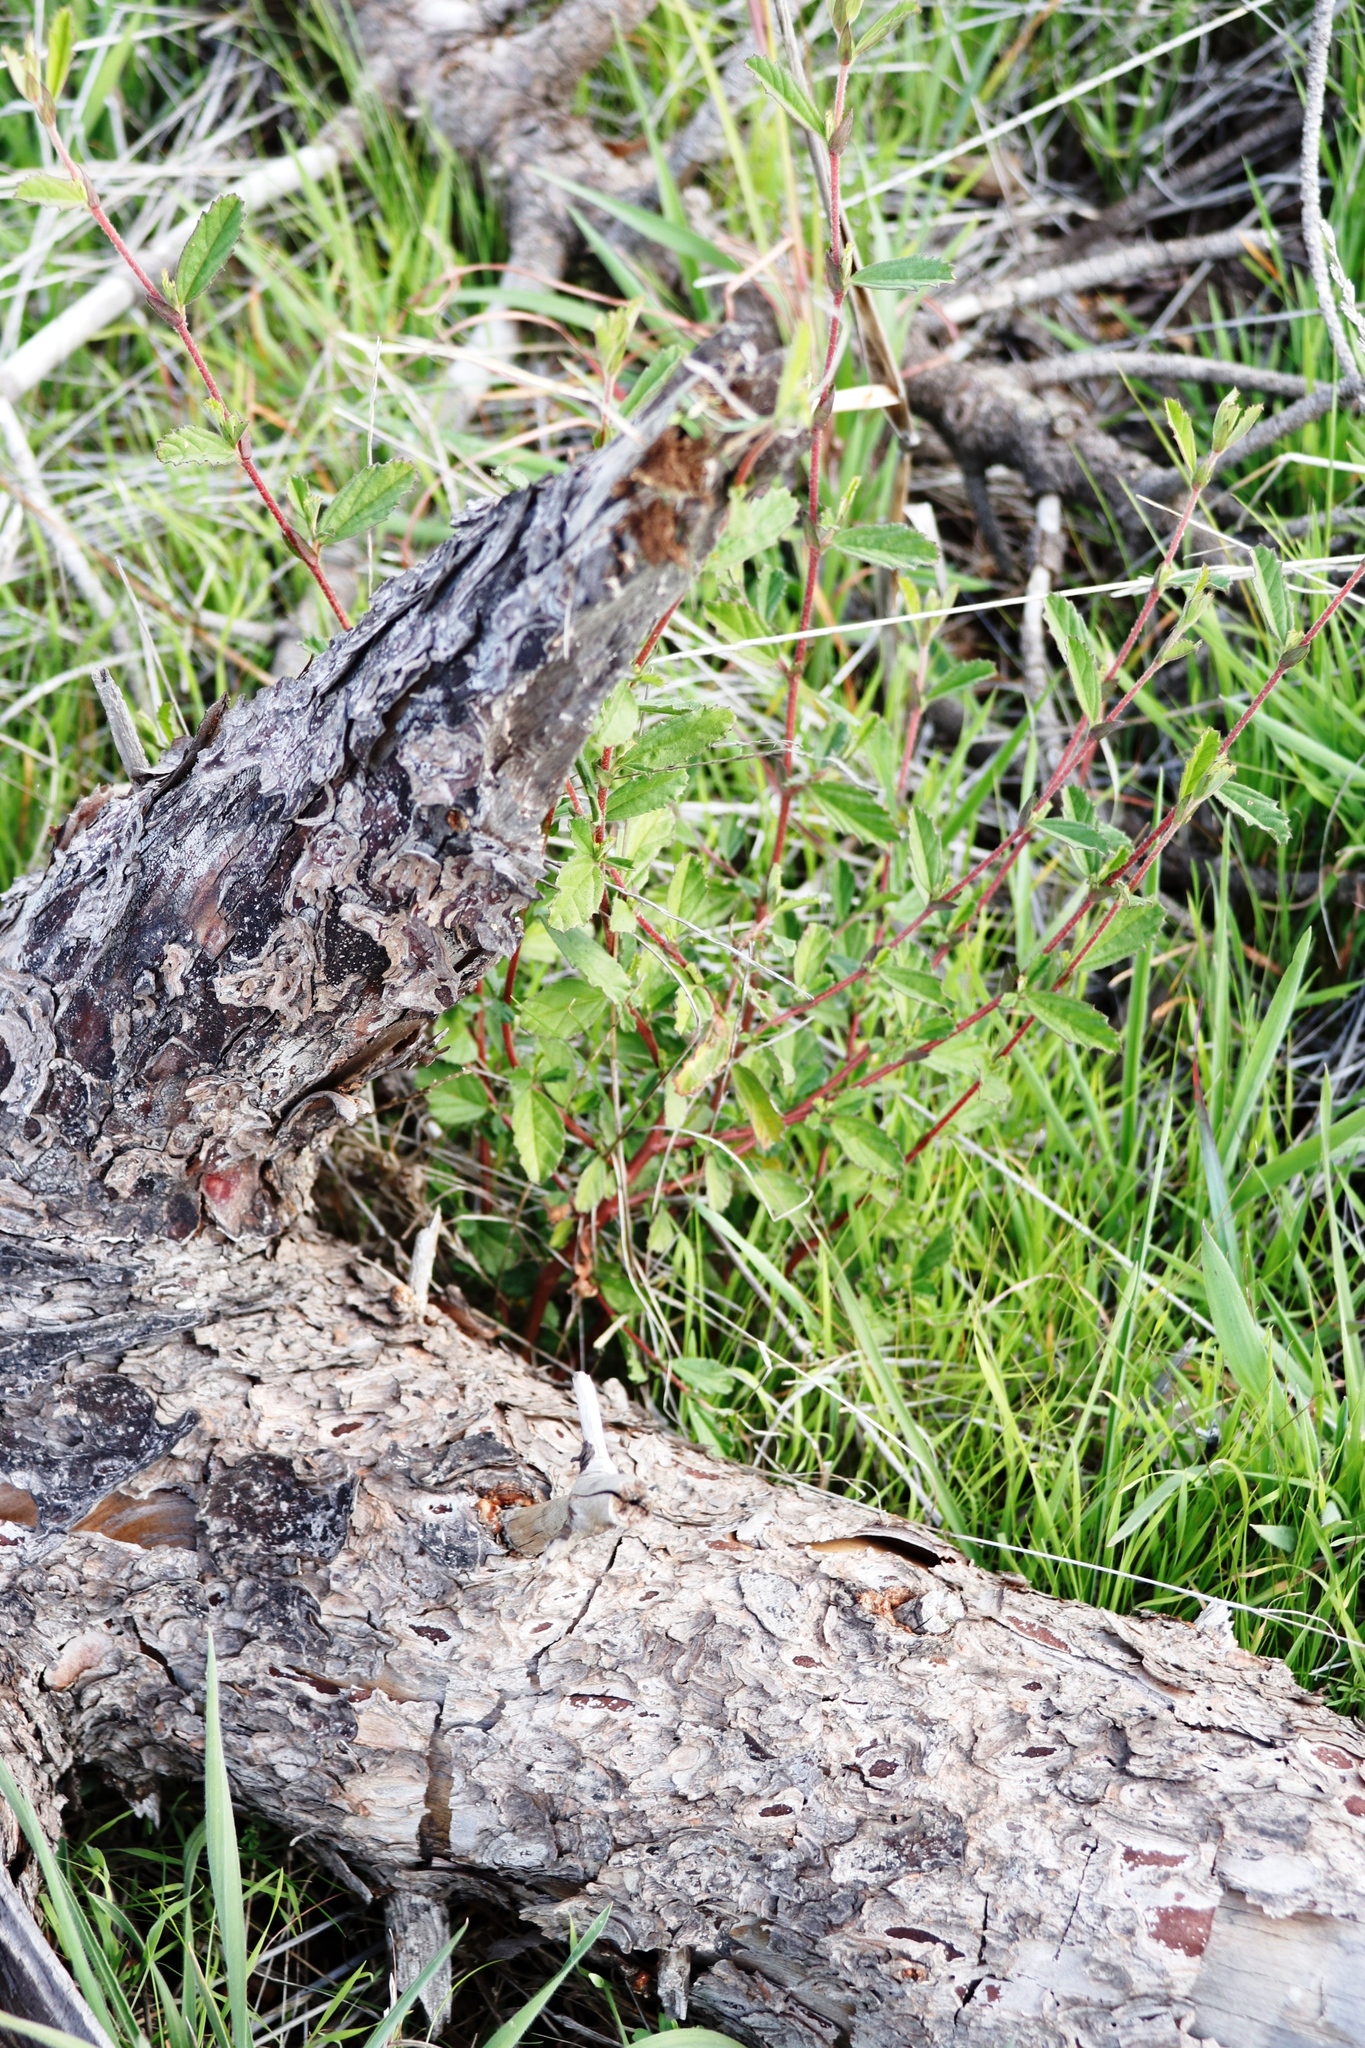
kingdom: Plantae
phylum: Tracheophyta
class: Magnoliopsida
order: Malvales
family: Malvaceae
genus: Hermannia
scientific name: Hermannia hyssopifolia
